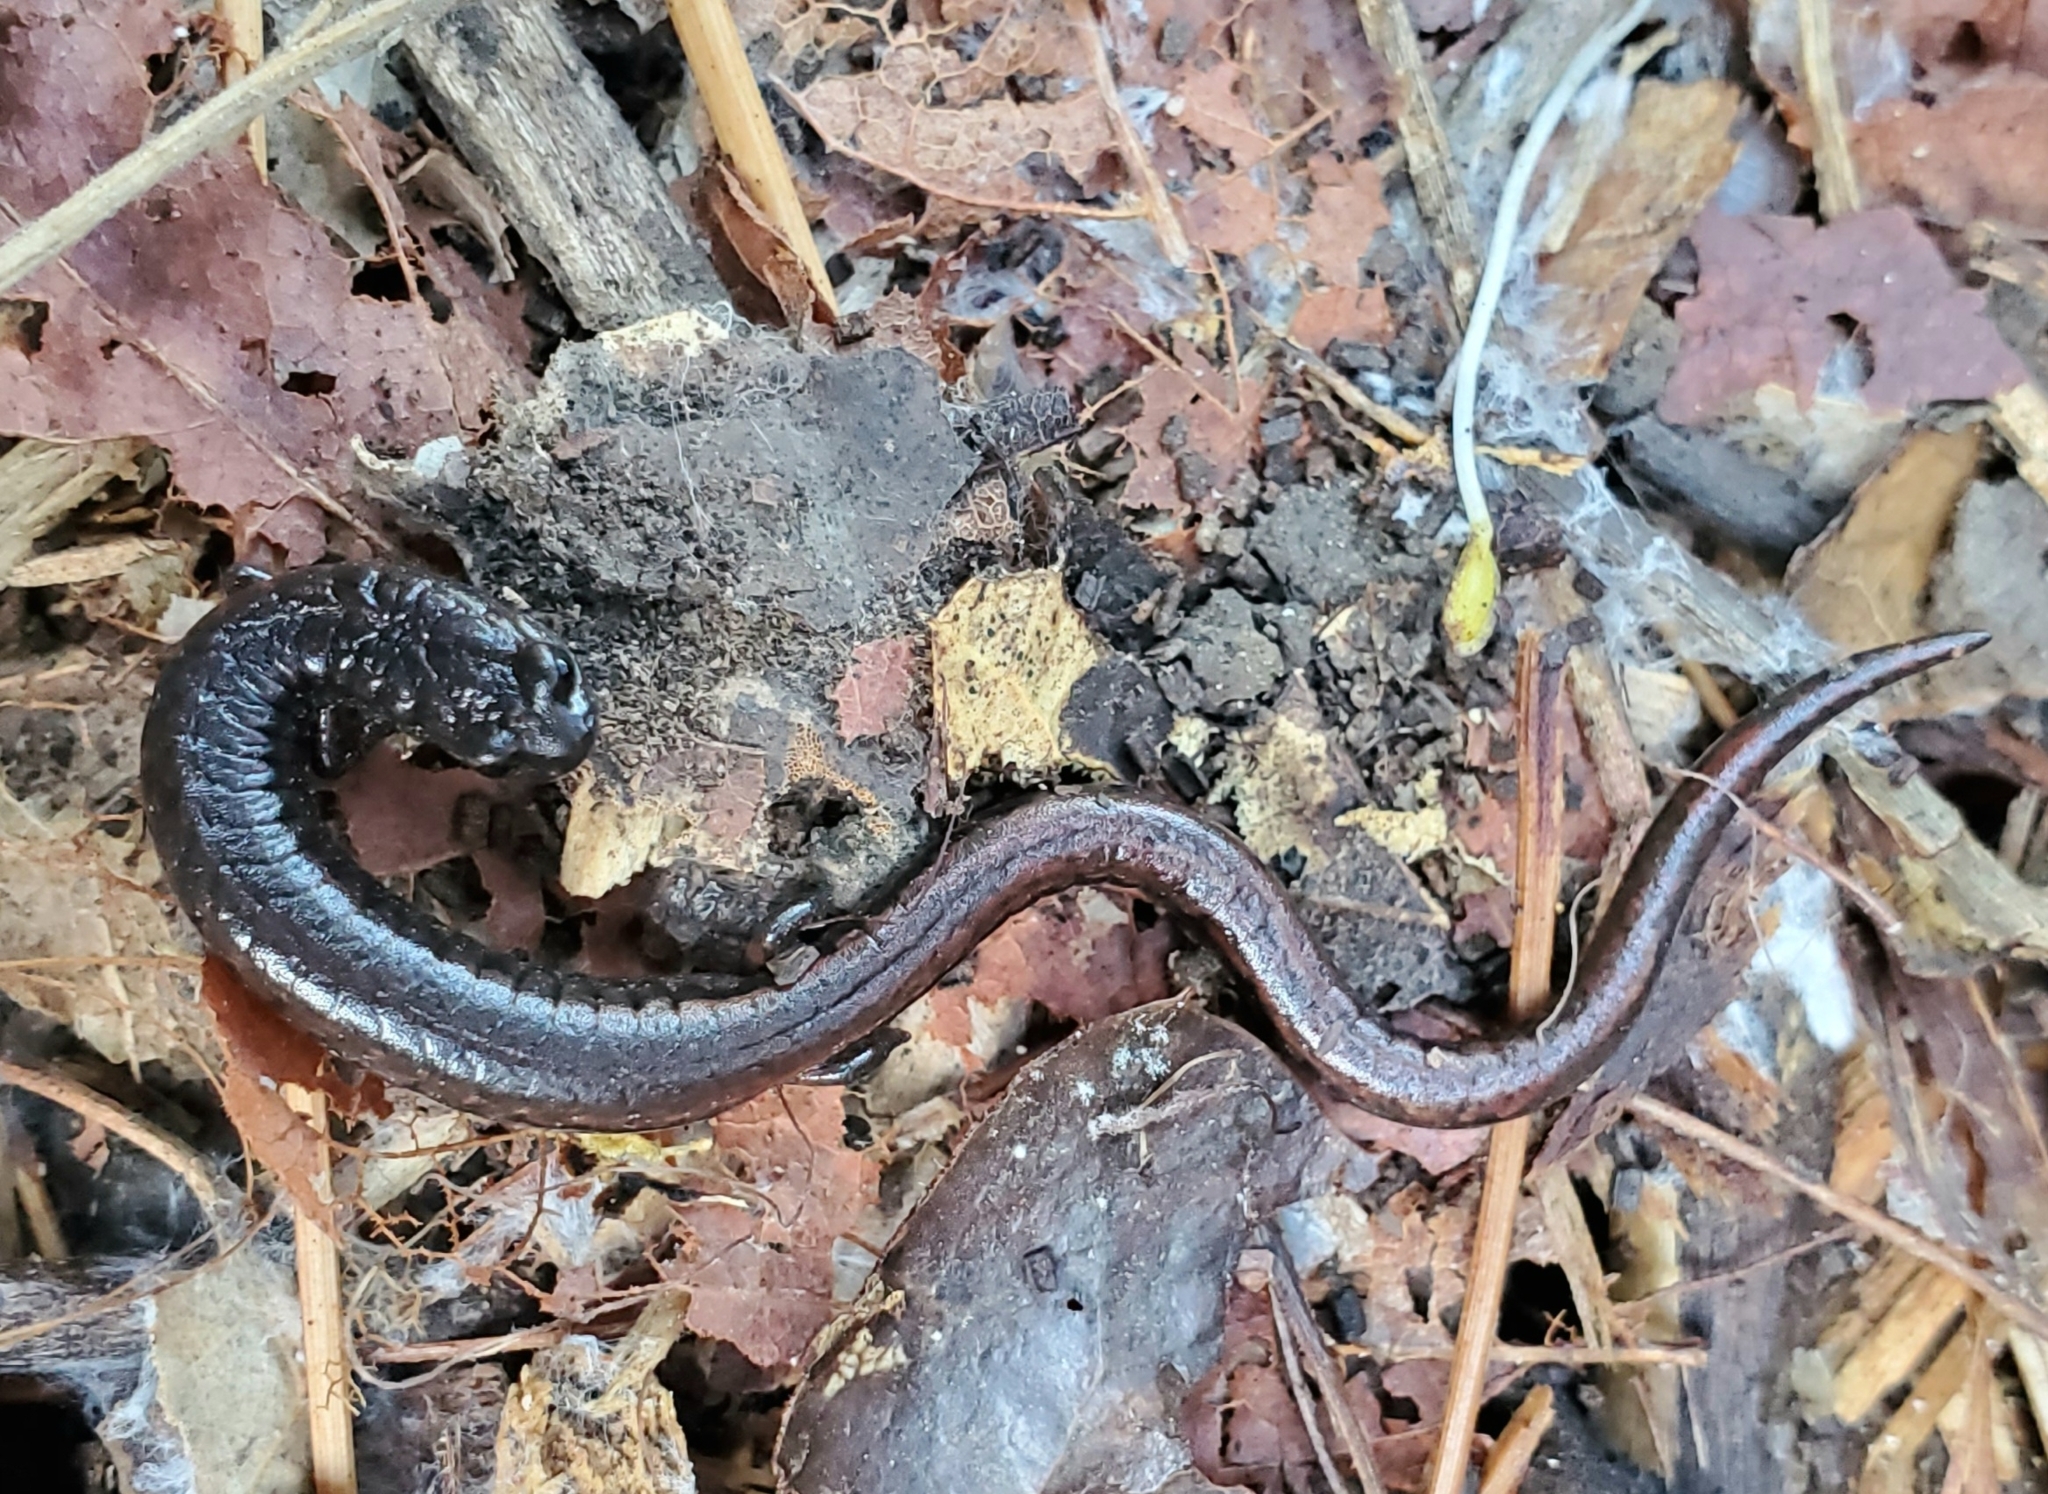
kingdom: Animalia
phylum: Chordata
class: Amphibia
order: Caudata
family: Plethodontidae
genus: Batrachoseps
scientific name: Batrachoseps attenuatus
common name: California slender salamander
